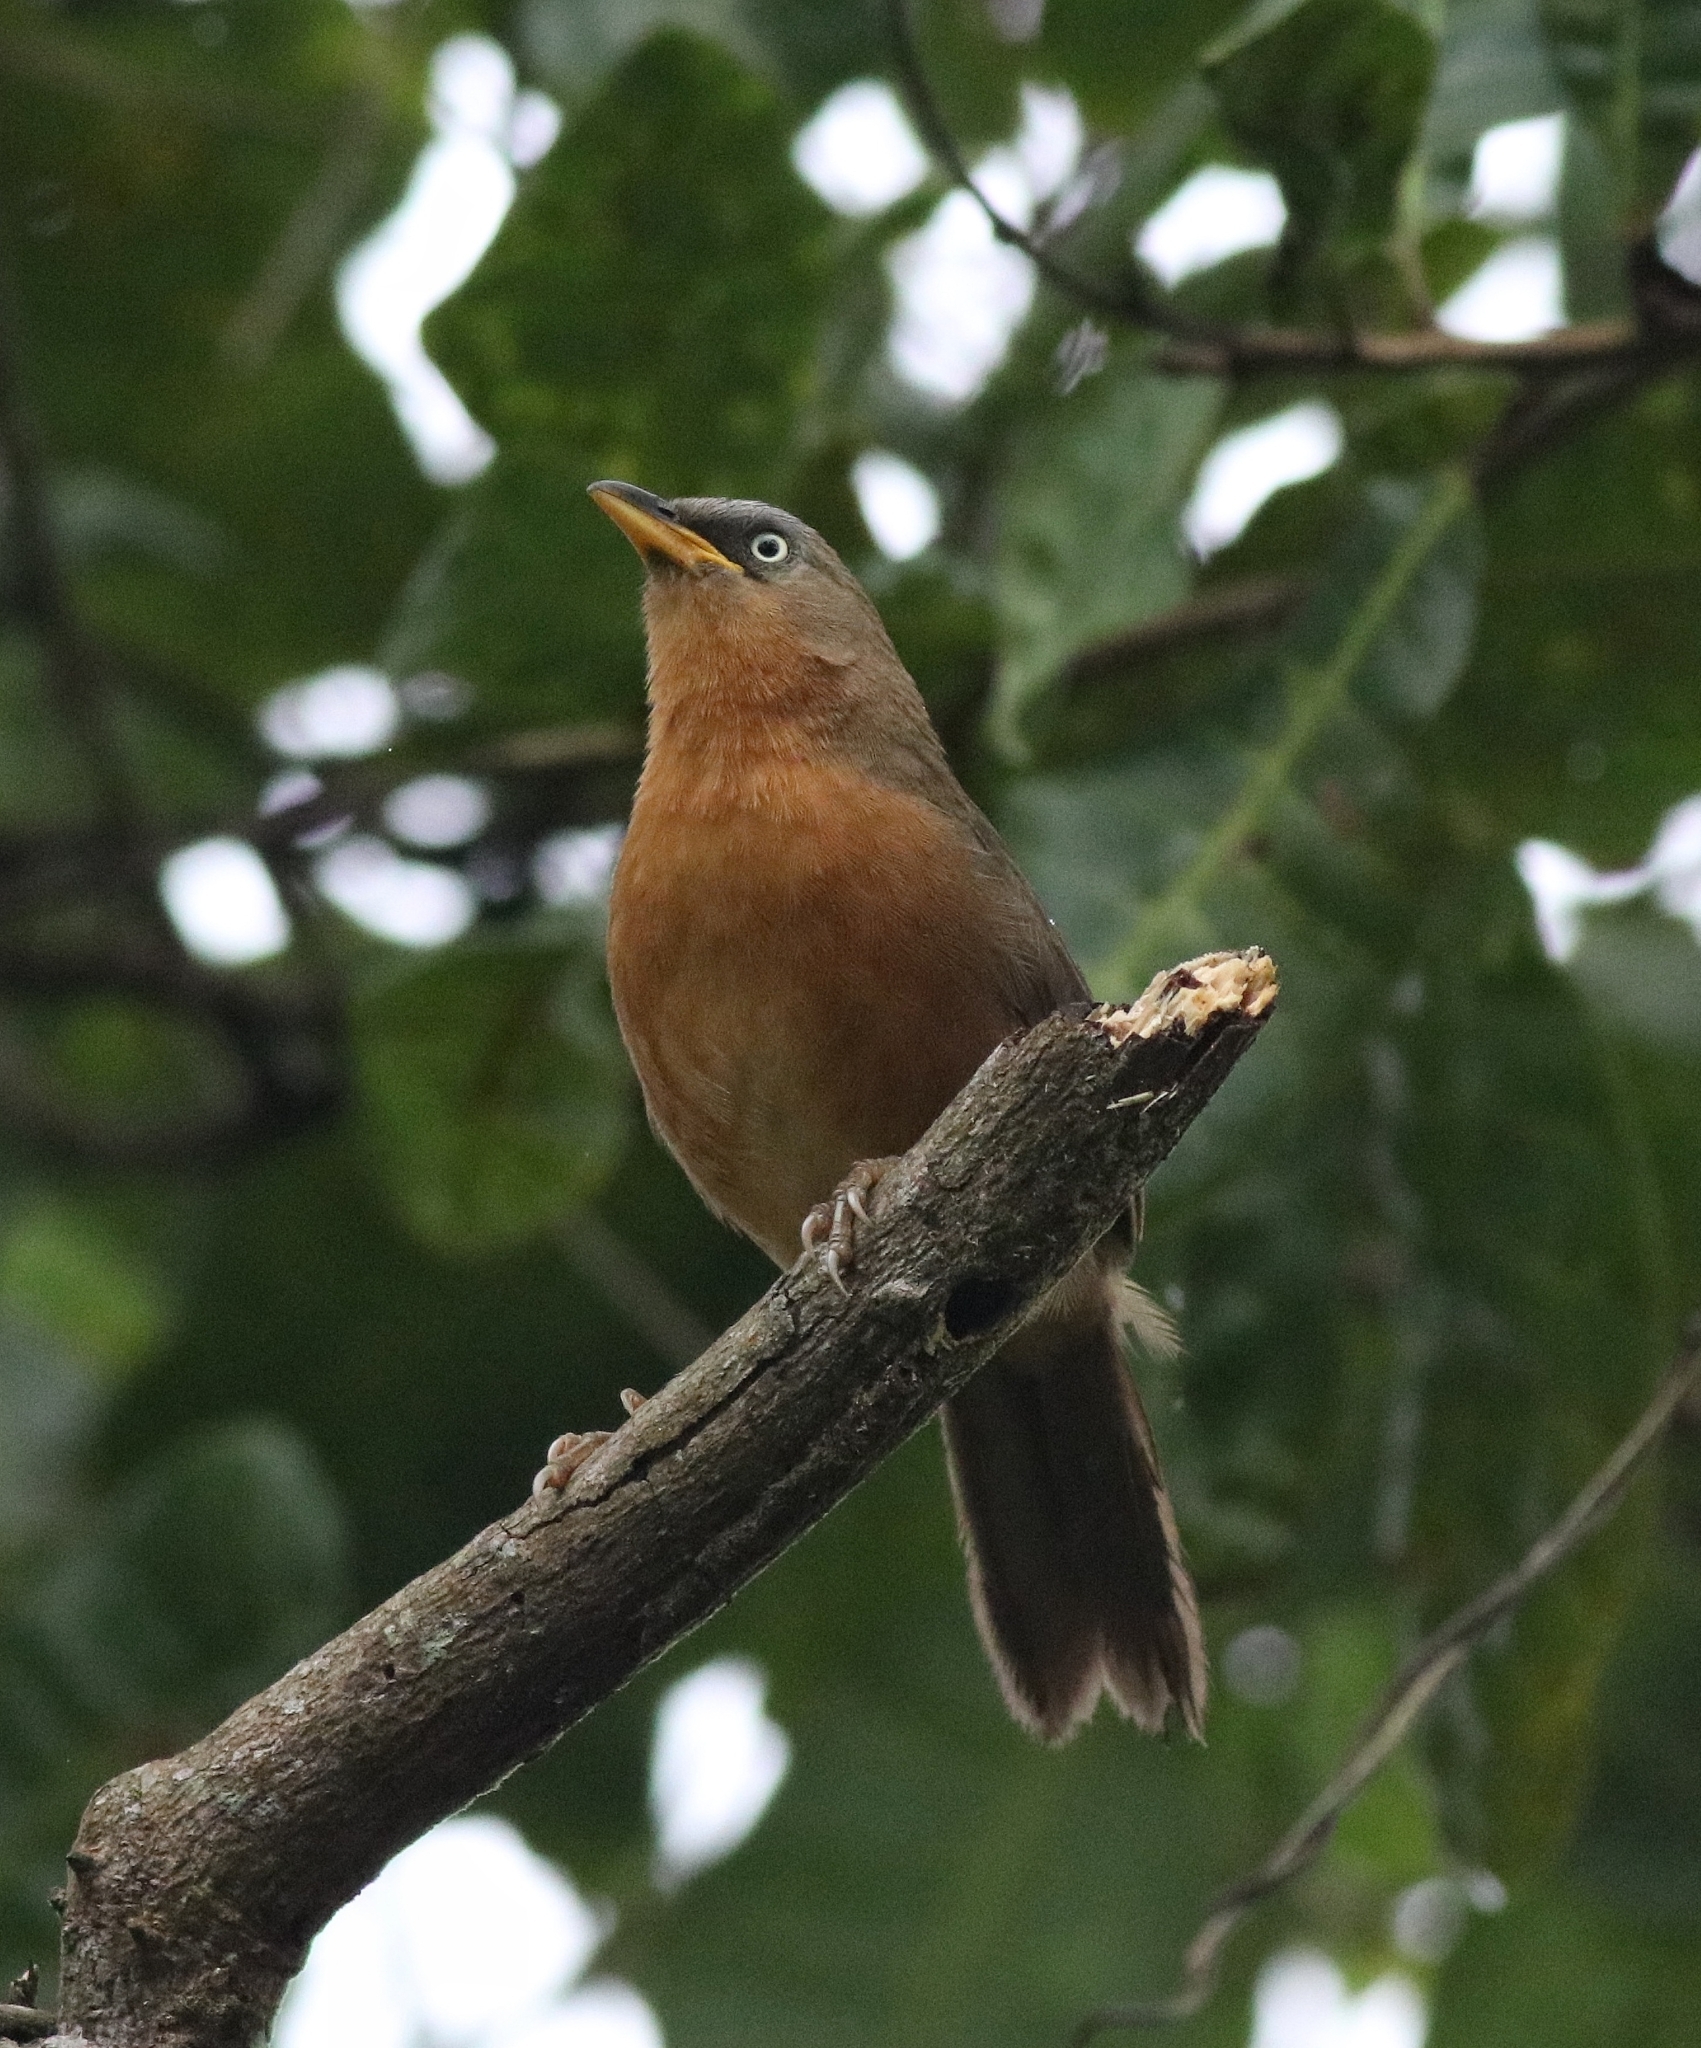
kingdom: Animalia
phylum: Chordata
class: Aves
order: Passeriformes
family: Leiothrichidae
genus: Turdoides
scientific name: Turdoides subrufa
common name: Rufous babbler
